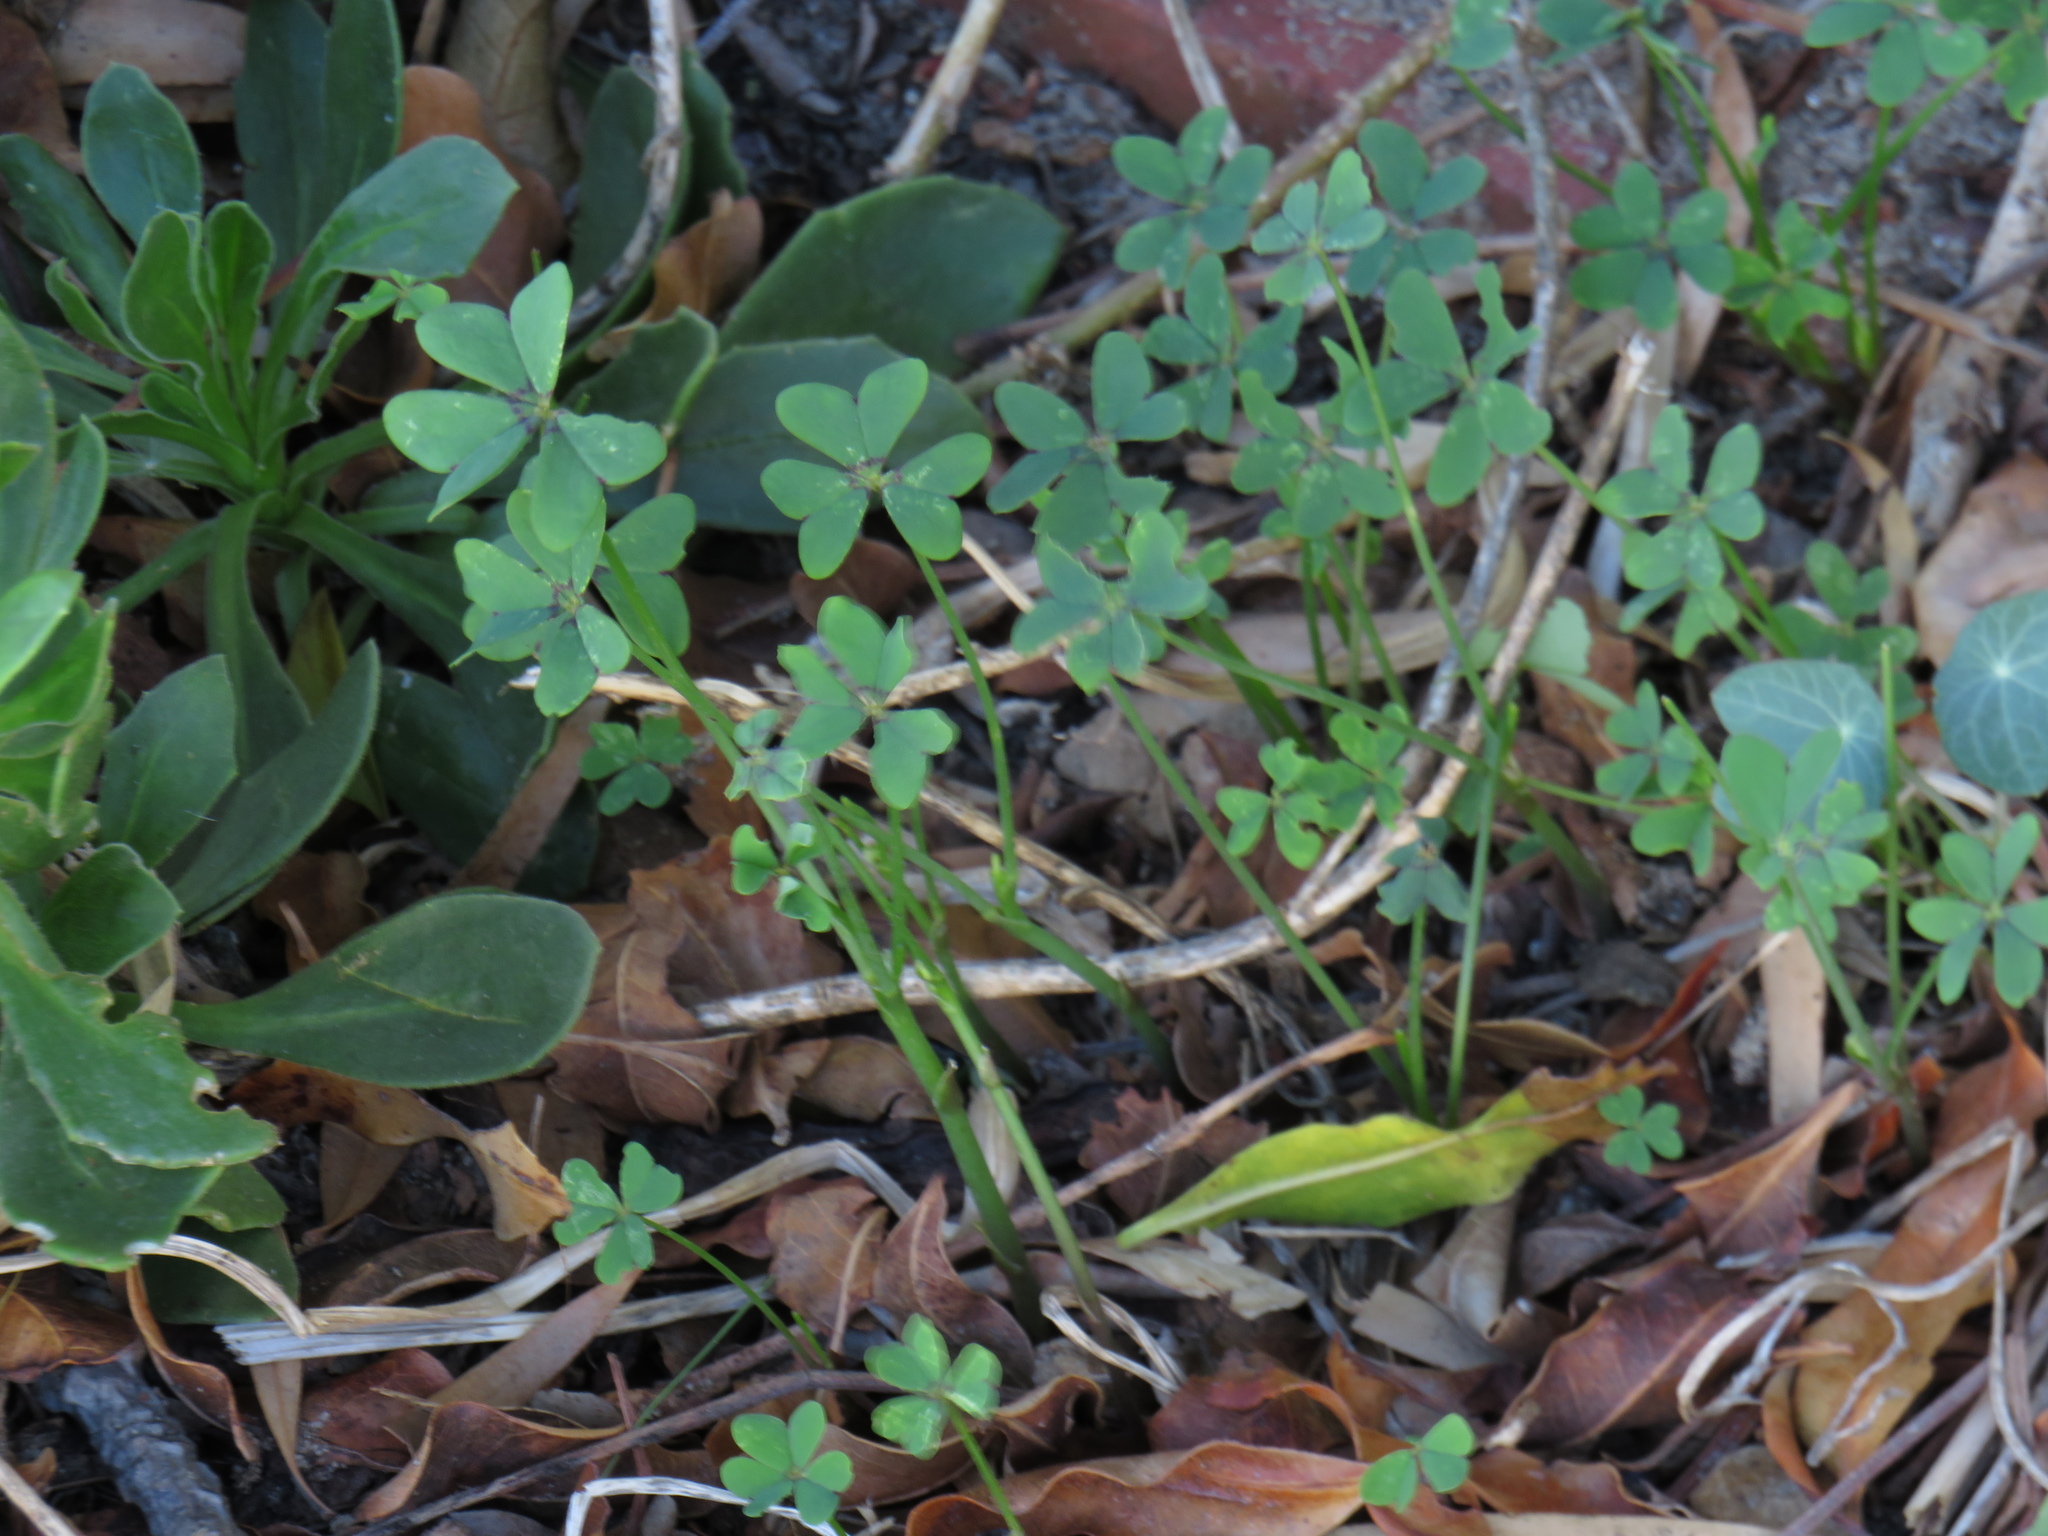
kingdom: Plantae
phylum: Tracheophyta
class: Magnoliopsida
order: Oxalidales
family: Oxalidaceae
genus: Oxalis
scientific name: Oxalis pes-caprae
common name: Bermuda-buttercup
